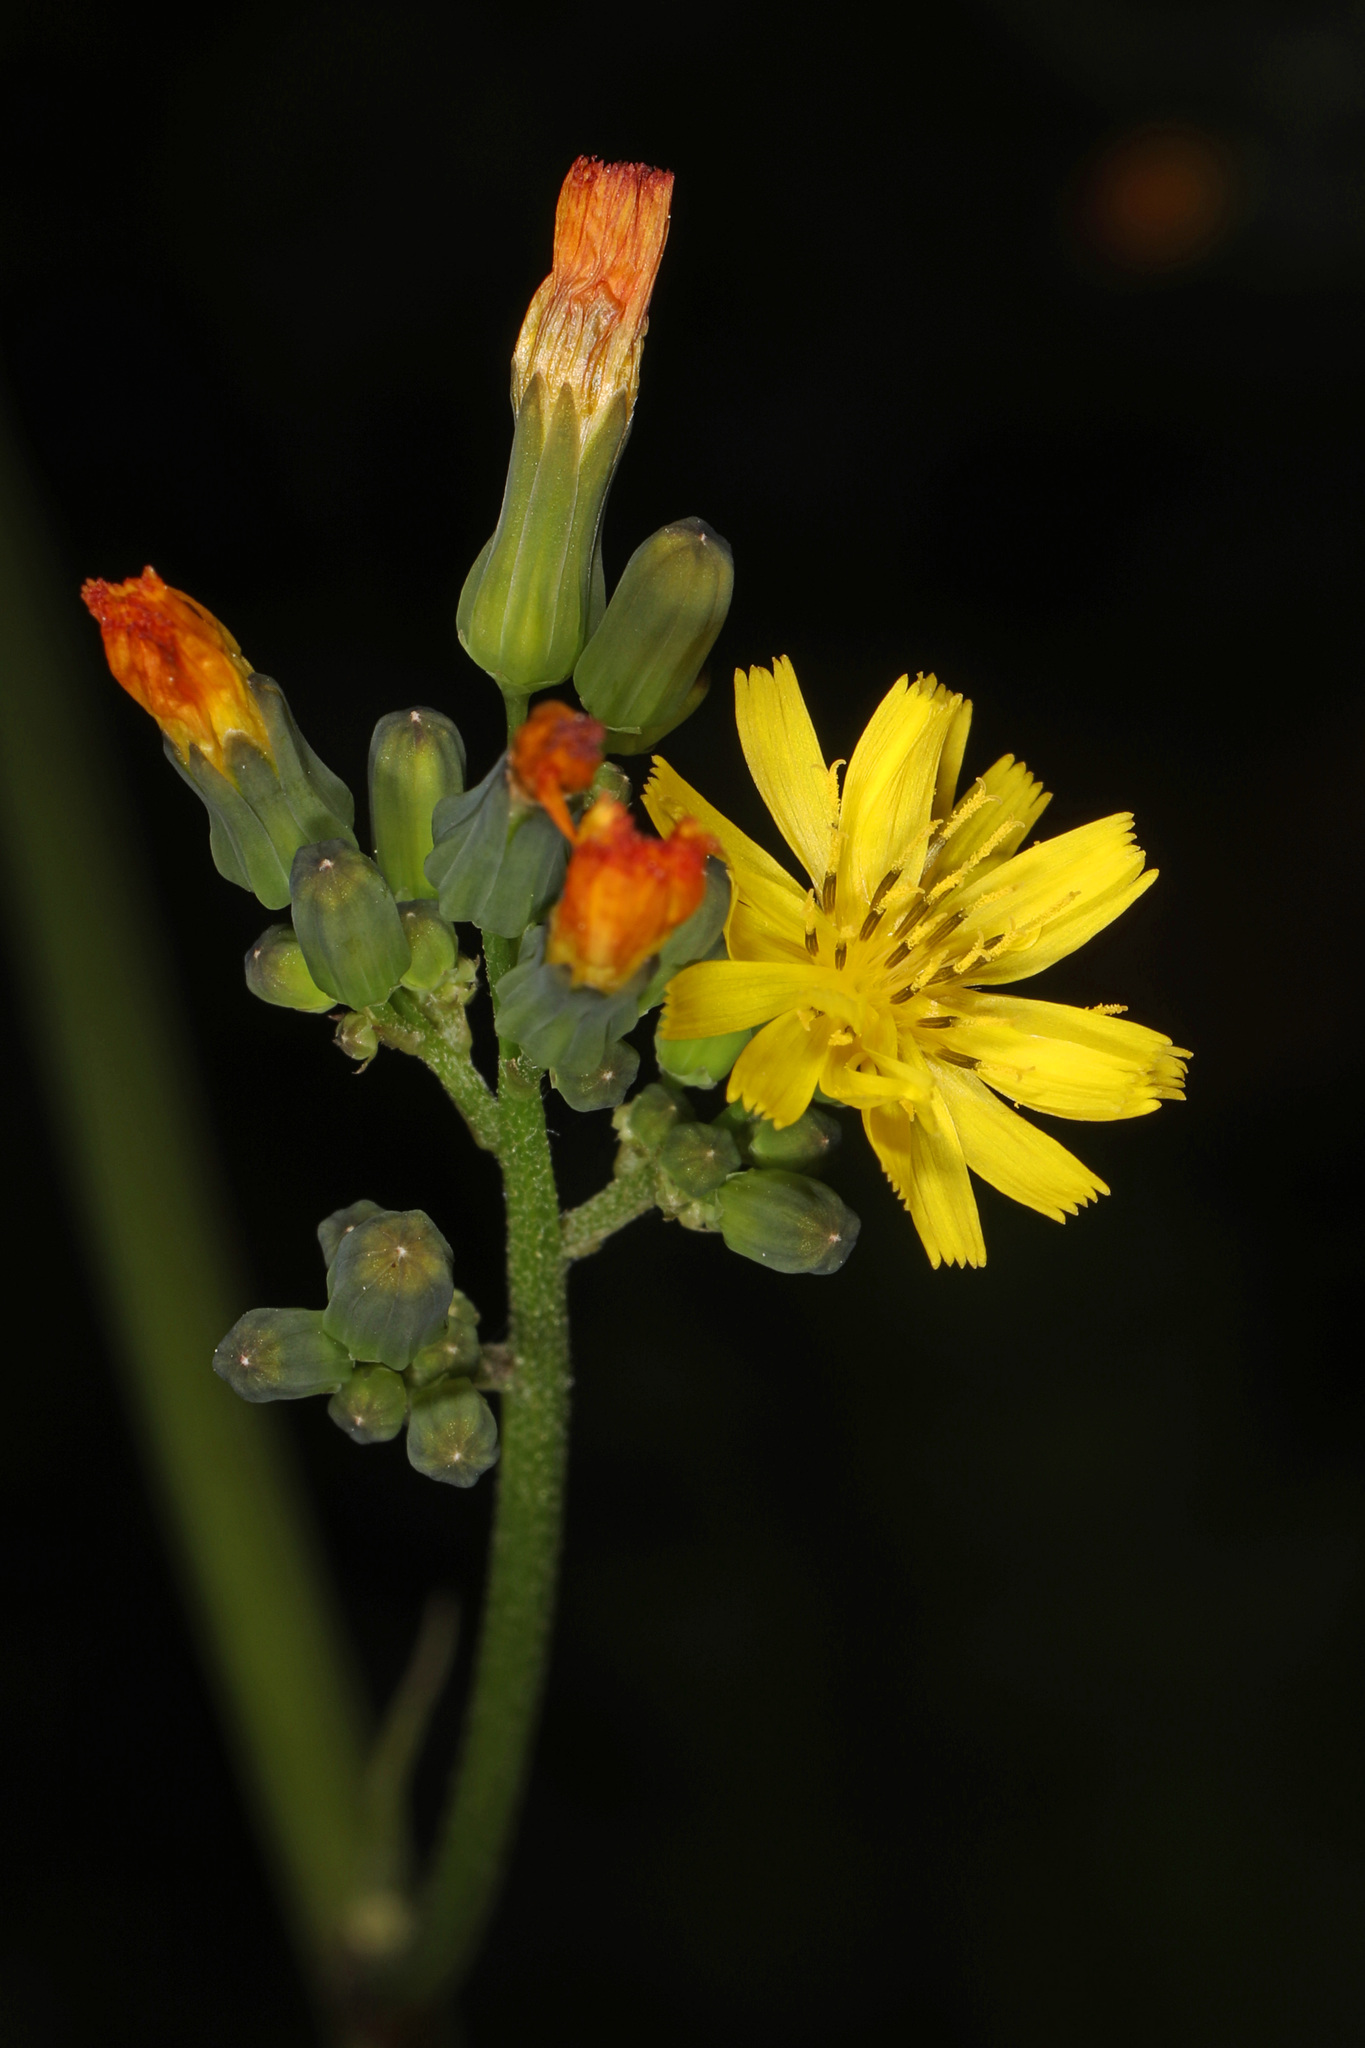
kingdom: Plantae
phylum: Tracheophyta
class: Magnoliopsida
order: Asterales
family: Asteraceae
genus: Youngia
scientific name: Youngia japonica
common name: Oriental false hawksbeard
